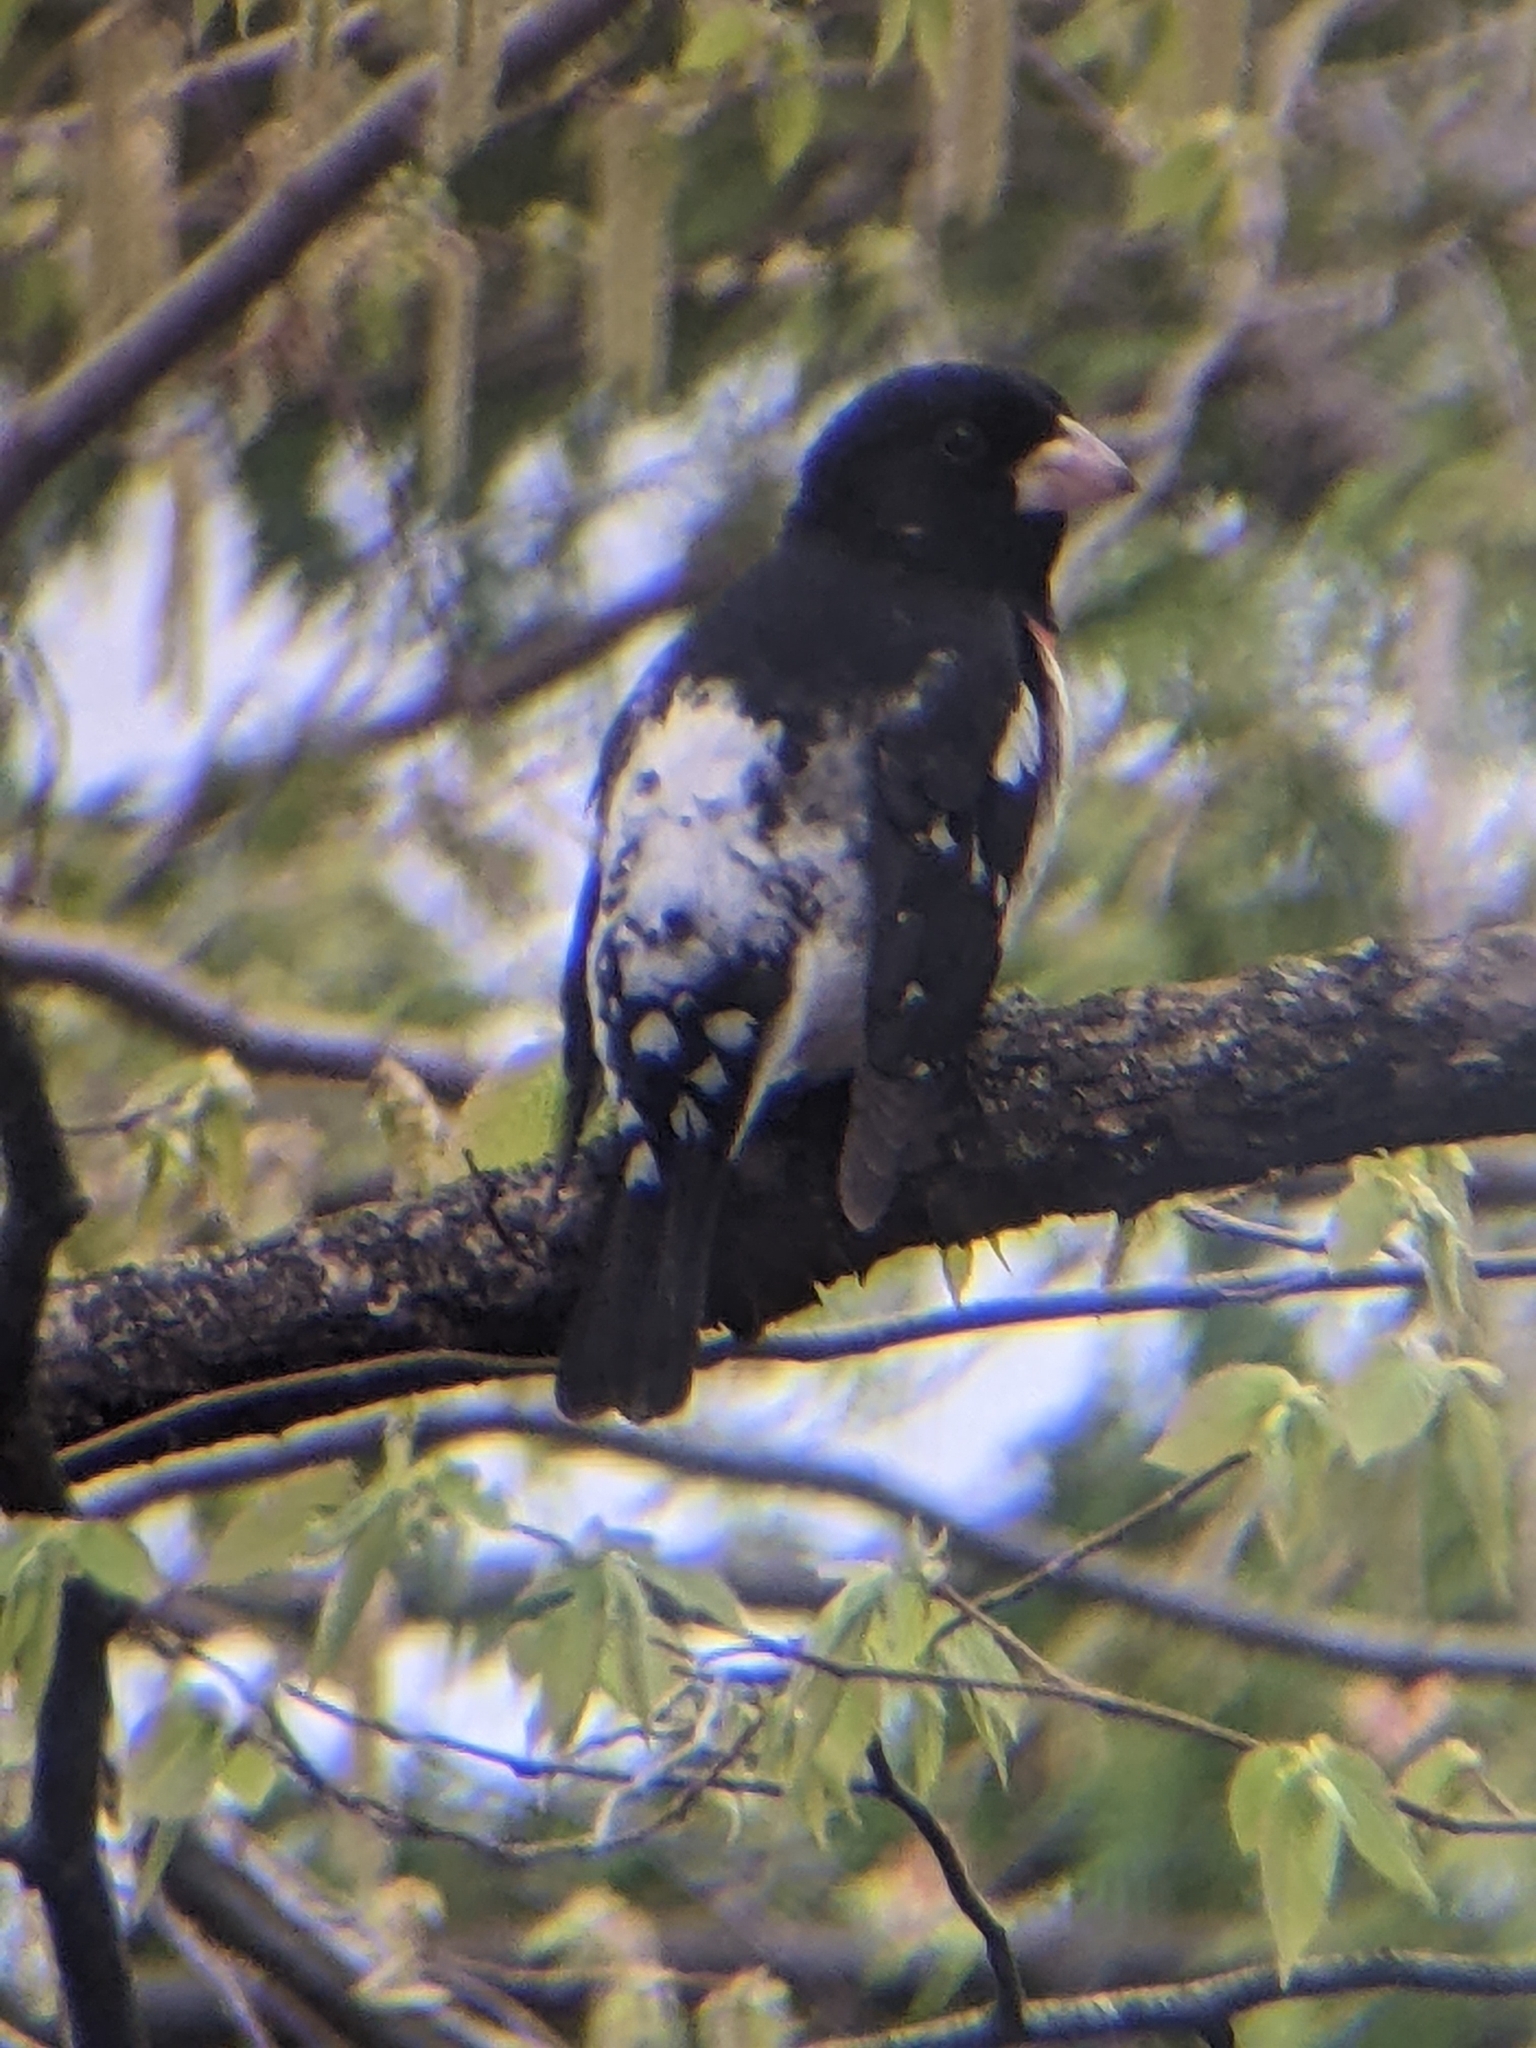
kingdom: Animalia
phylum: Chordata
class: Aves
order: Passeriformes
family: Cardinalidae
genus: Pheucticus
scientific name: Pheucticus ludovicianus
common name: Rose-breasted grosbeak
